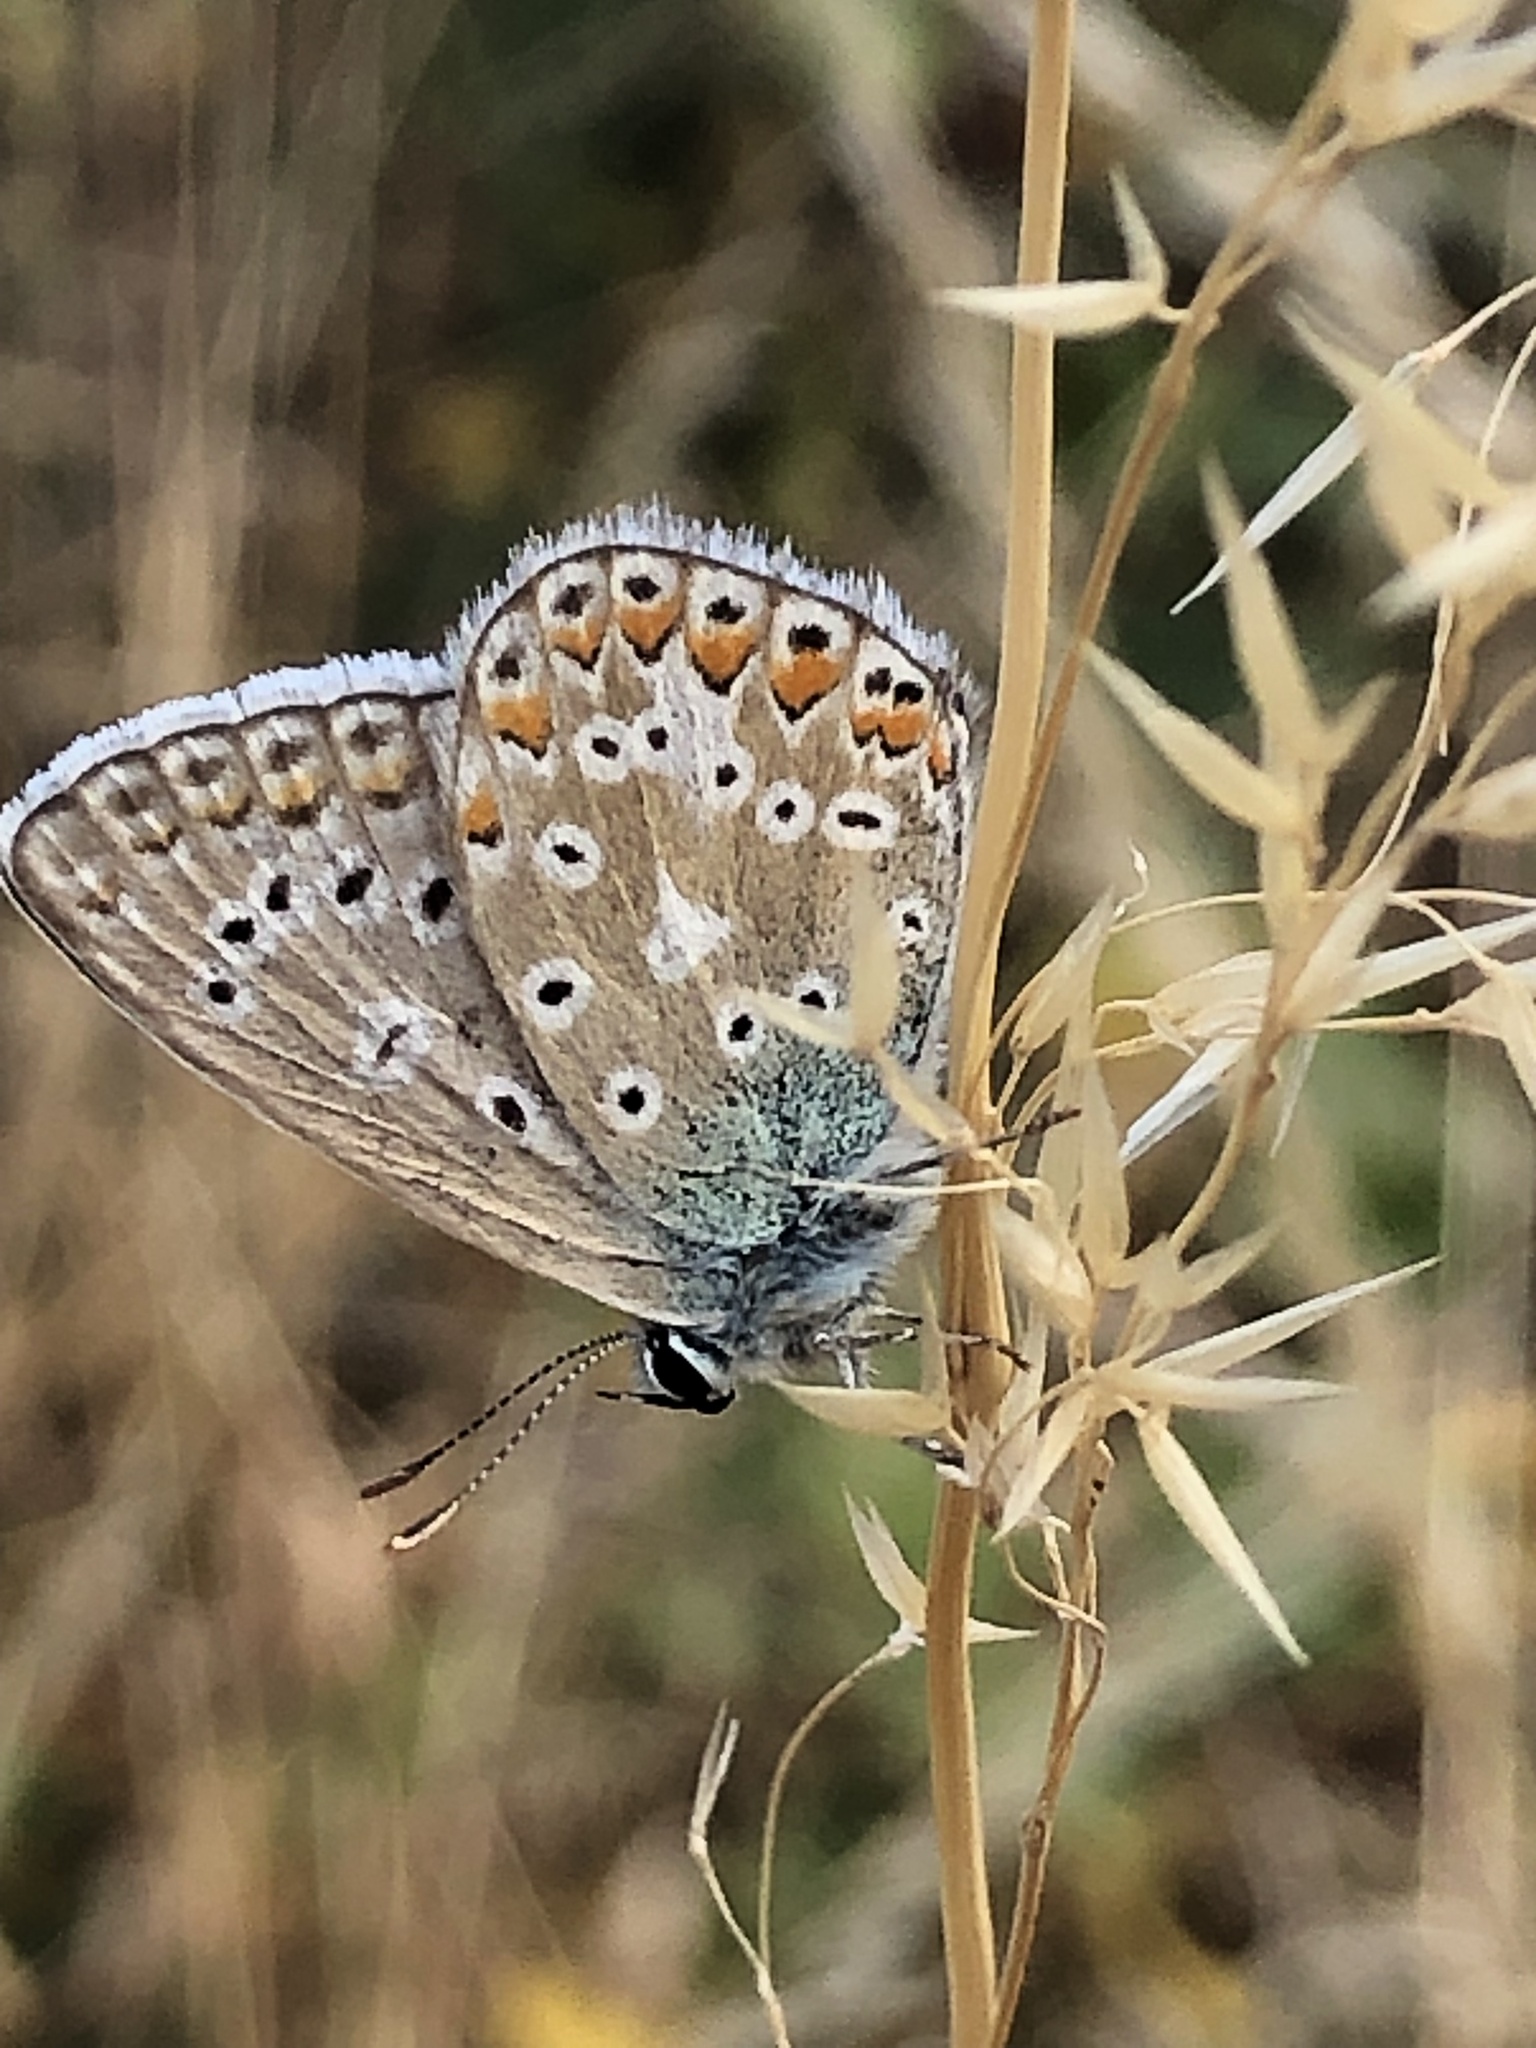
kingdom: Animalia
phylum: Arthropoda
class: Insecta
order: Lepidoptera
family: Lycaenidae
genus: Polyommatus
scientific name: Polyommatus icarus
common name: Common blue
